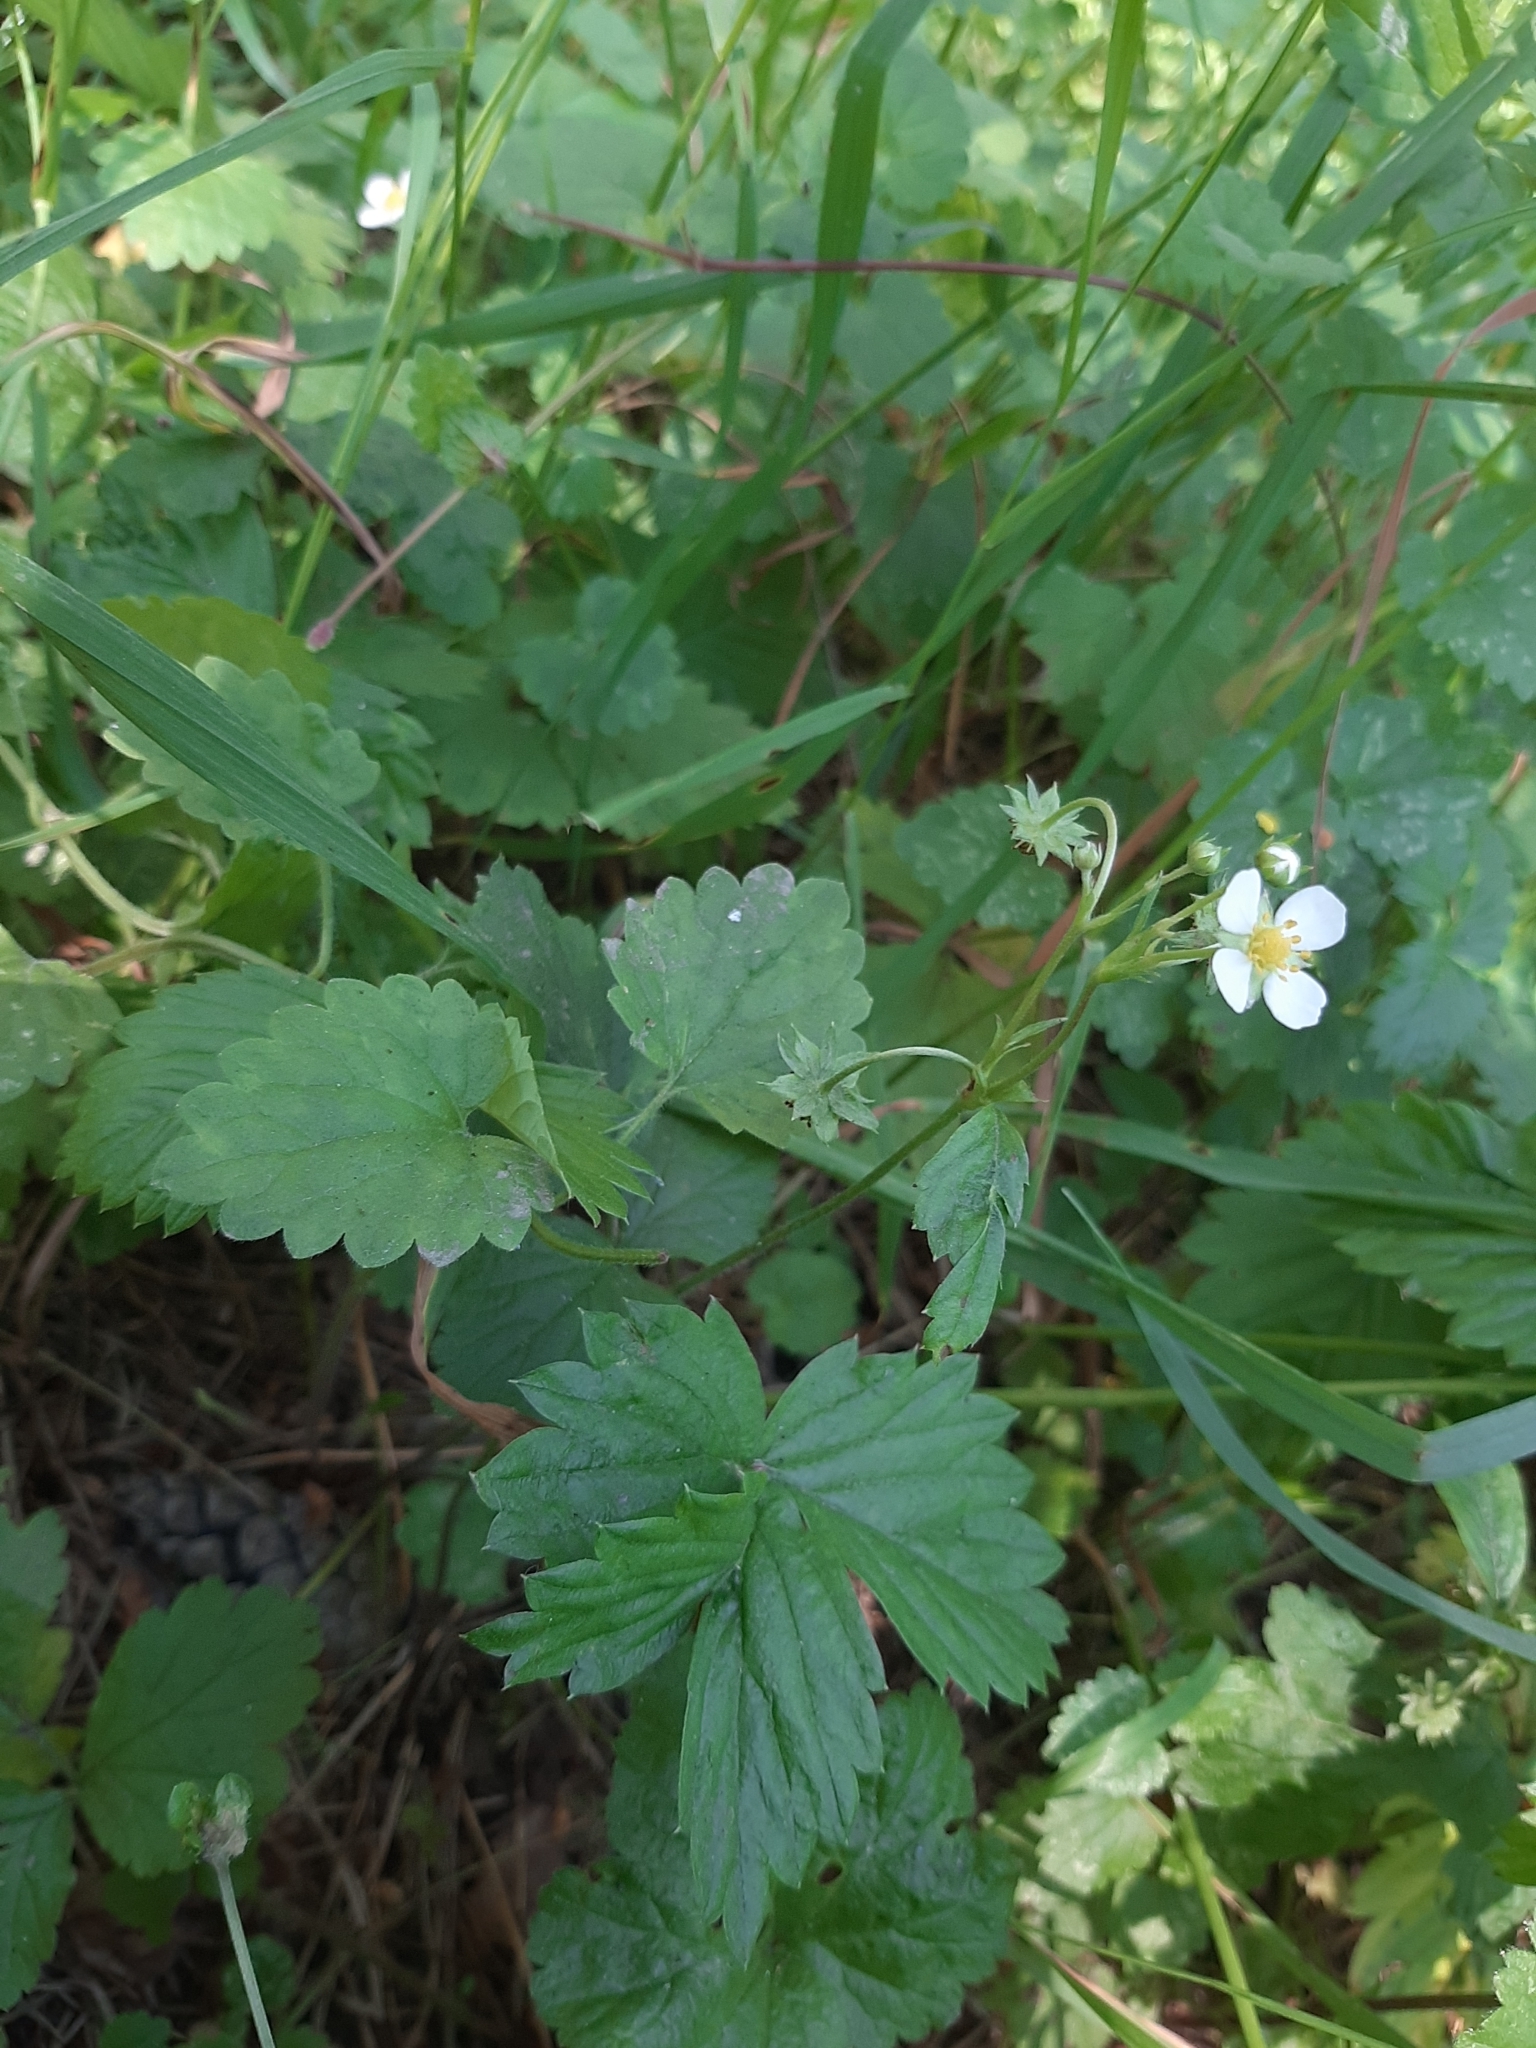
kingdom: Plantae
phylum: Tracheophyta
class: Magnoliopsida
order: Rosales
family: Rosaceae
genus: Fragaria
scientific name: Fragaria vesca
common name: Wild strawberry
